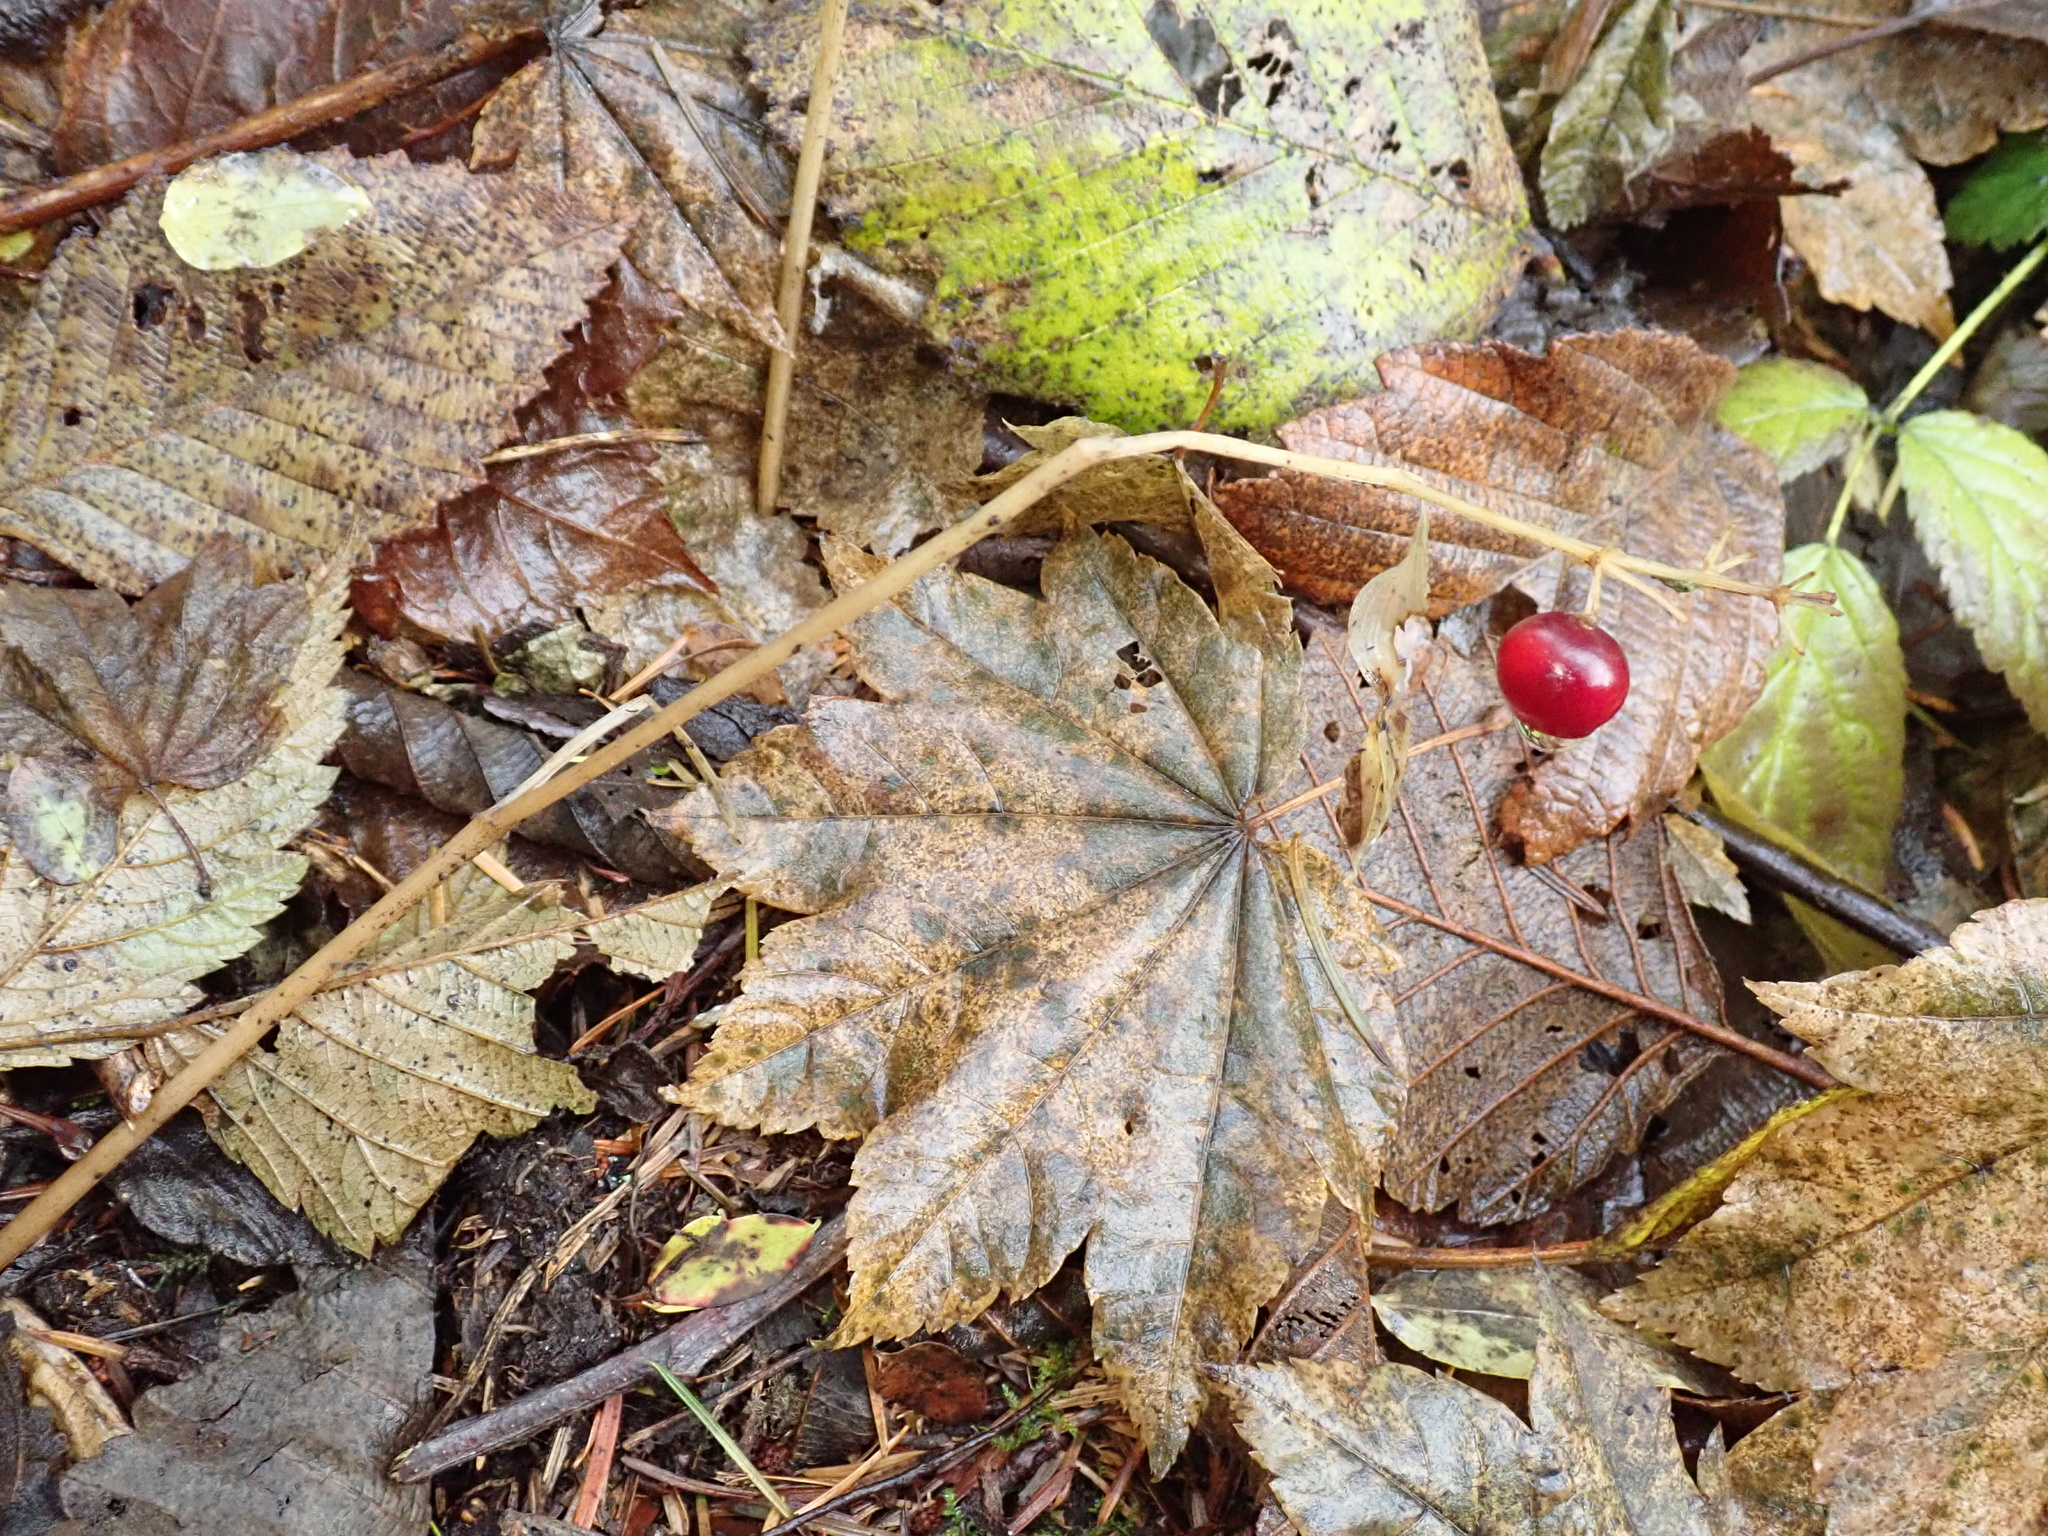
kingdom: Plantae
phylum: Tracheophyta
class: Liliopsida
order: Asparagales
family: Asparagaceae
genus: Maianthemum
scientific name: Maianthemum dilatatum
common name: False lily-of-the-valley
